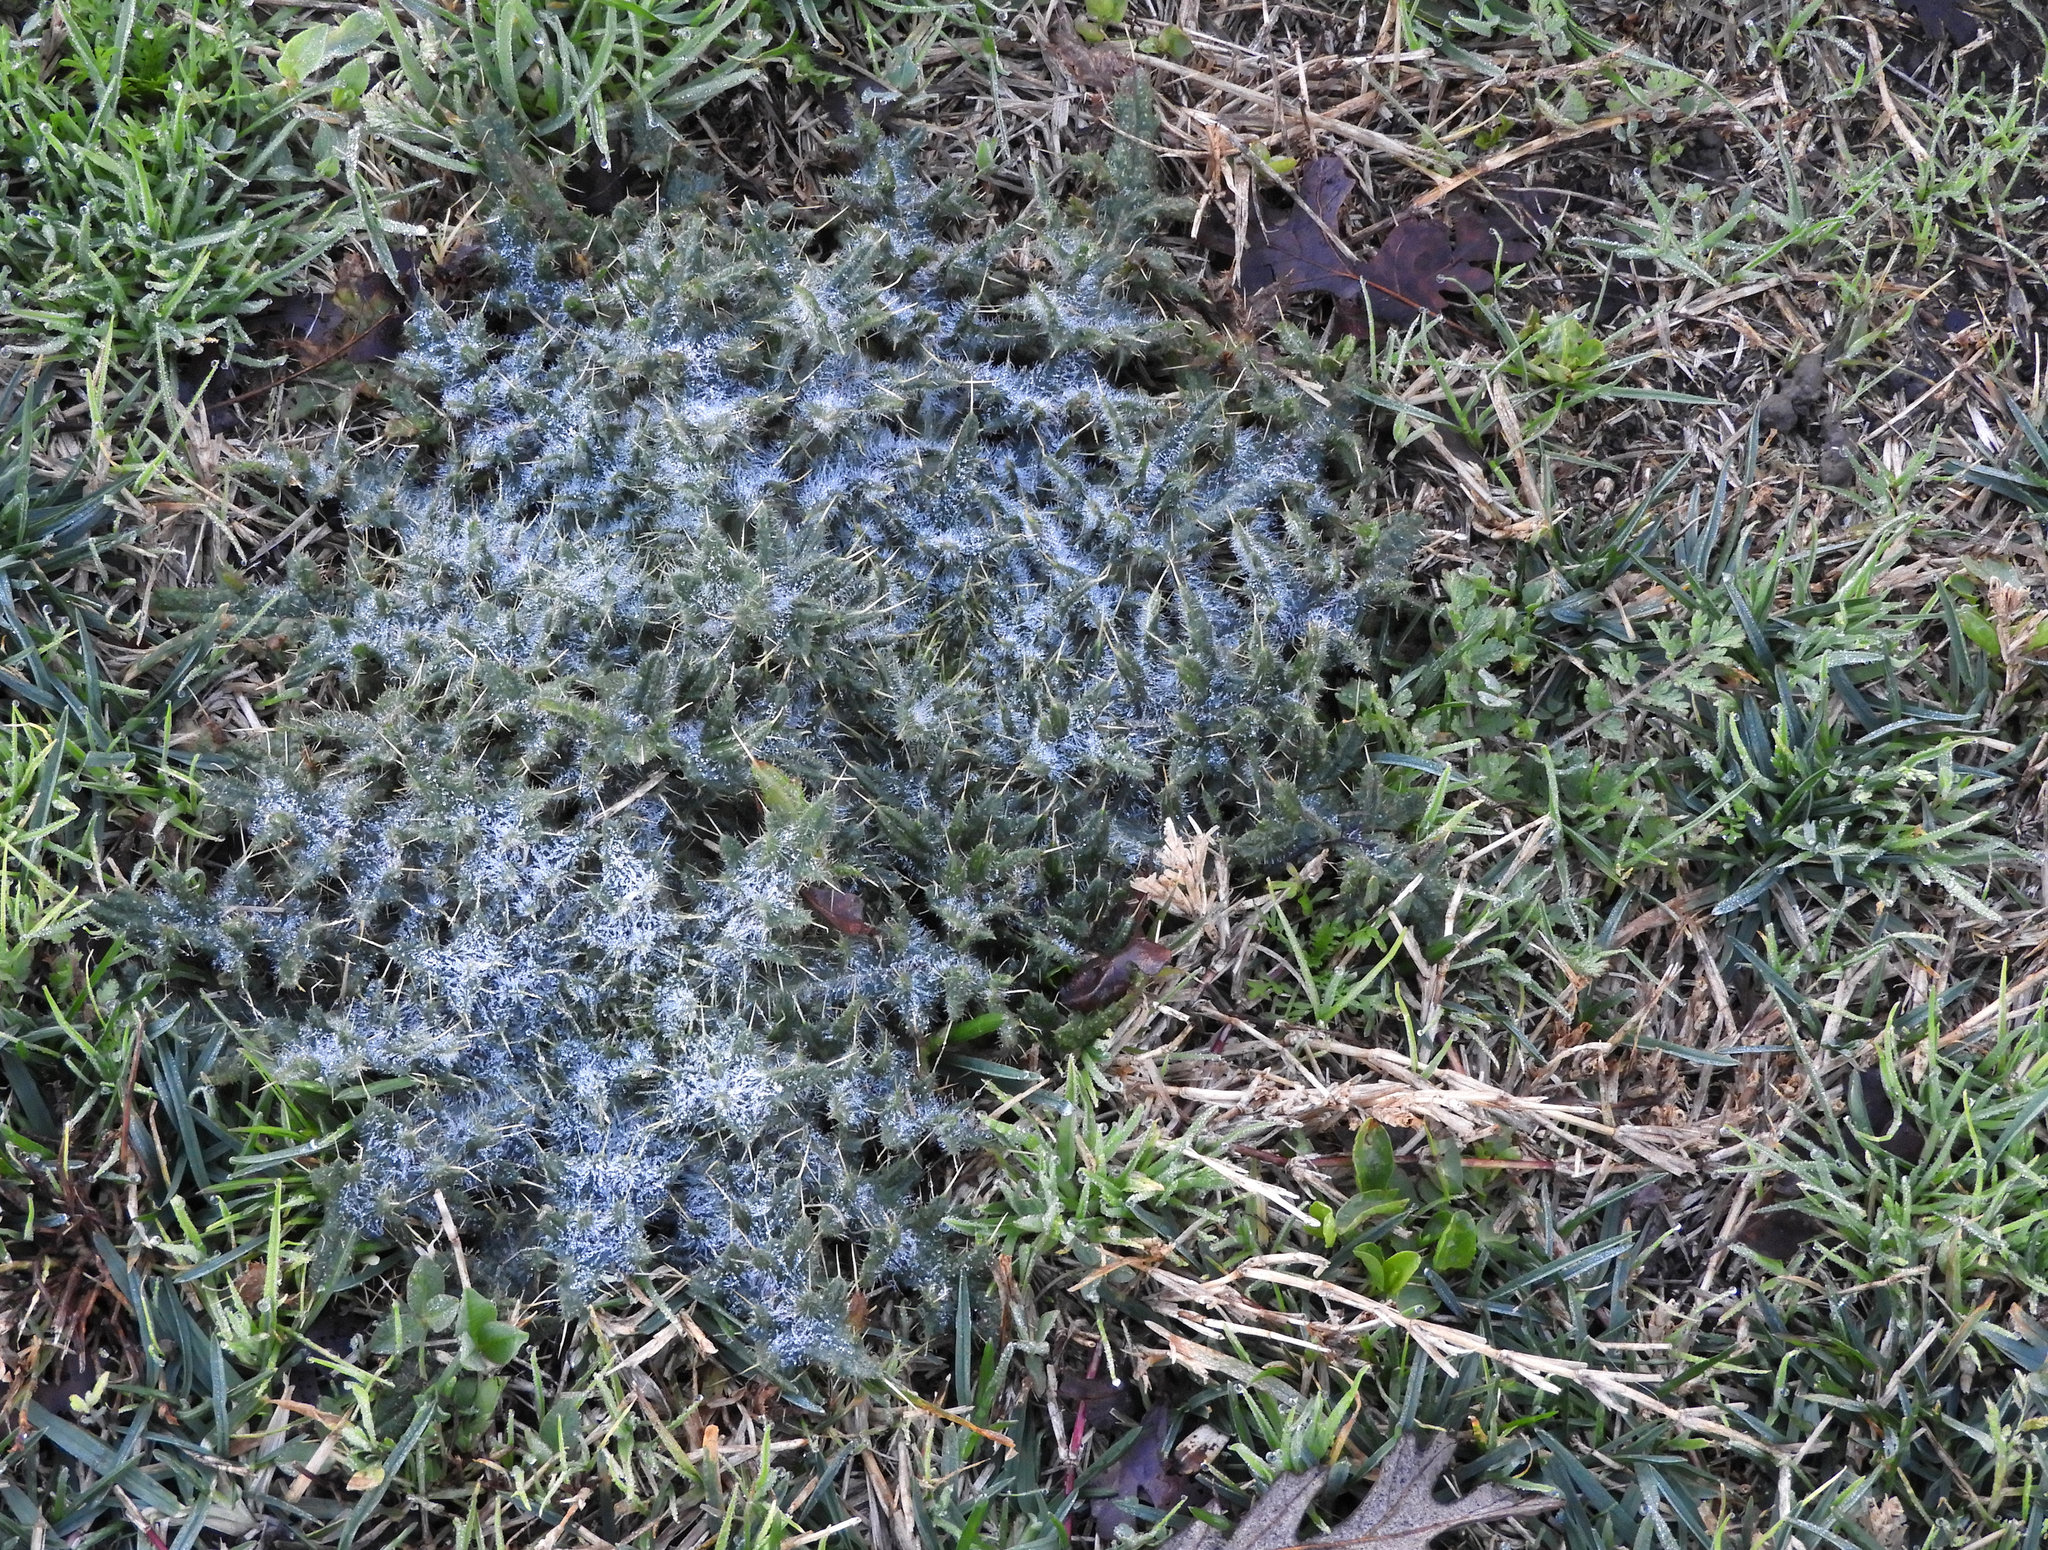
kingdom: Plantae
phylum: Tracheophyta
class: Magnoliopsida
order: Asterales
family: Asteraceae
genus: Cirsium
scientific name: Cirsium vulgare
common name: Bull thistle
